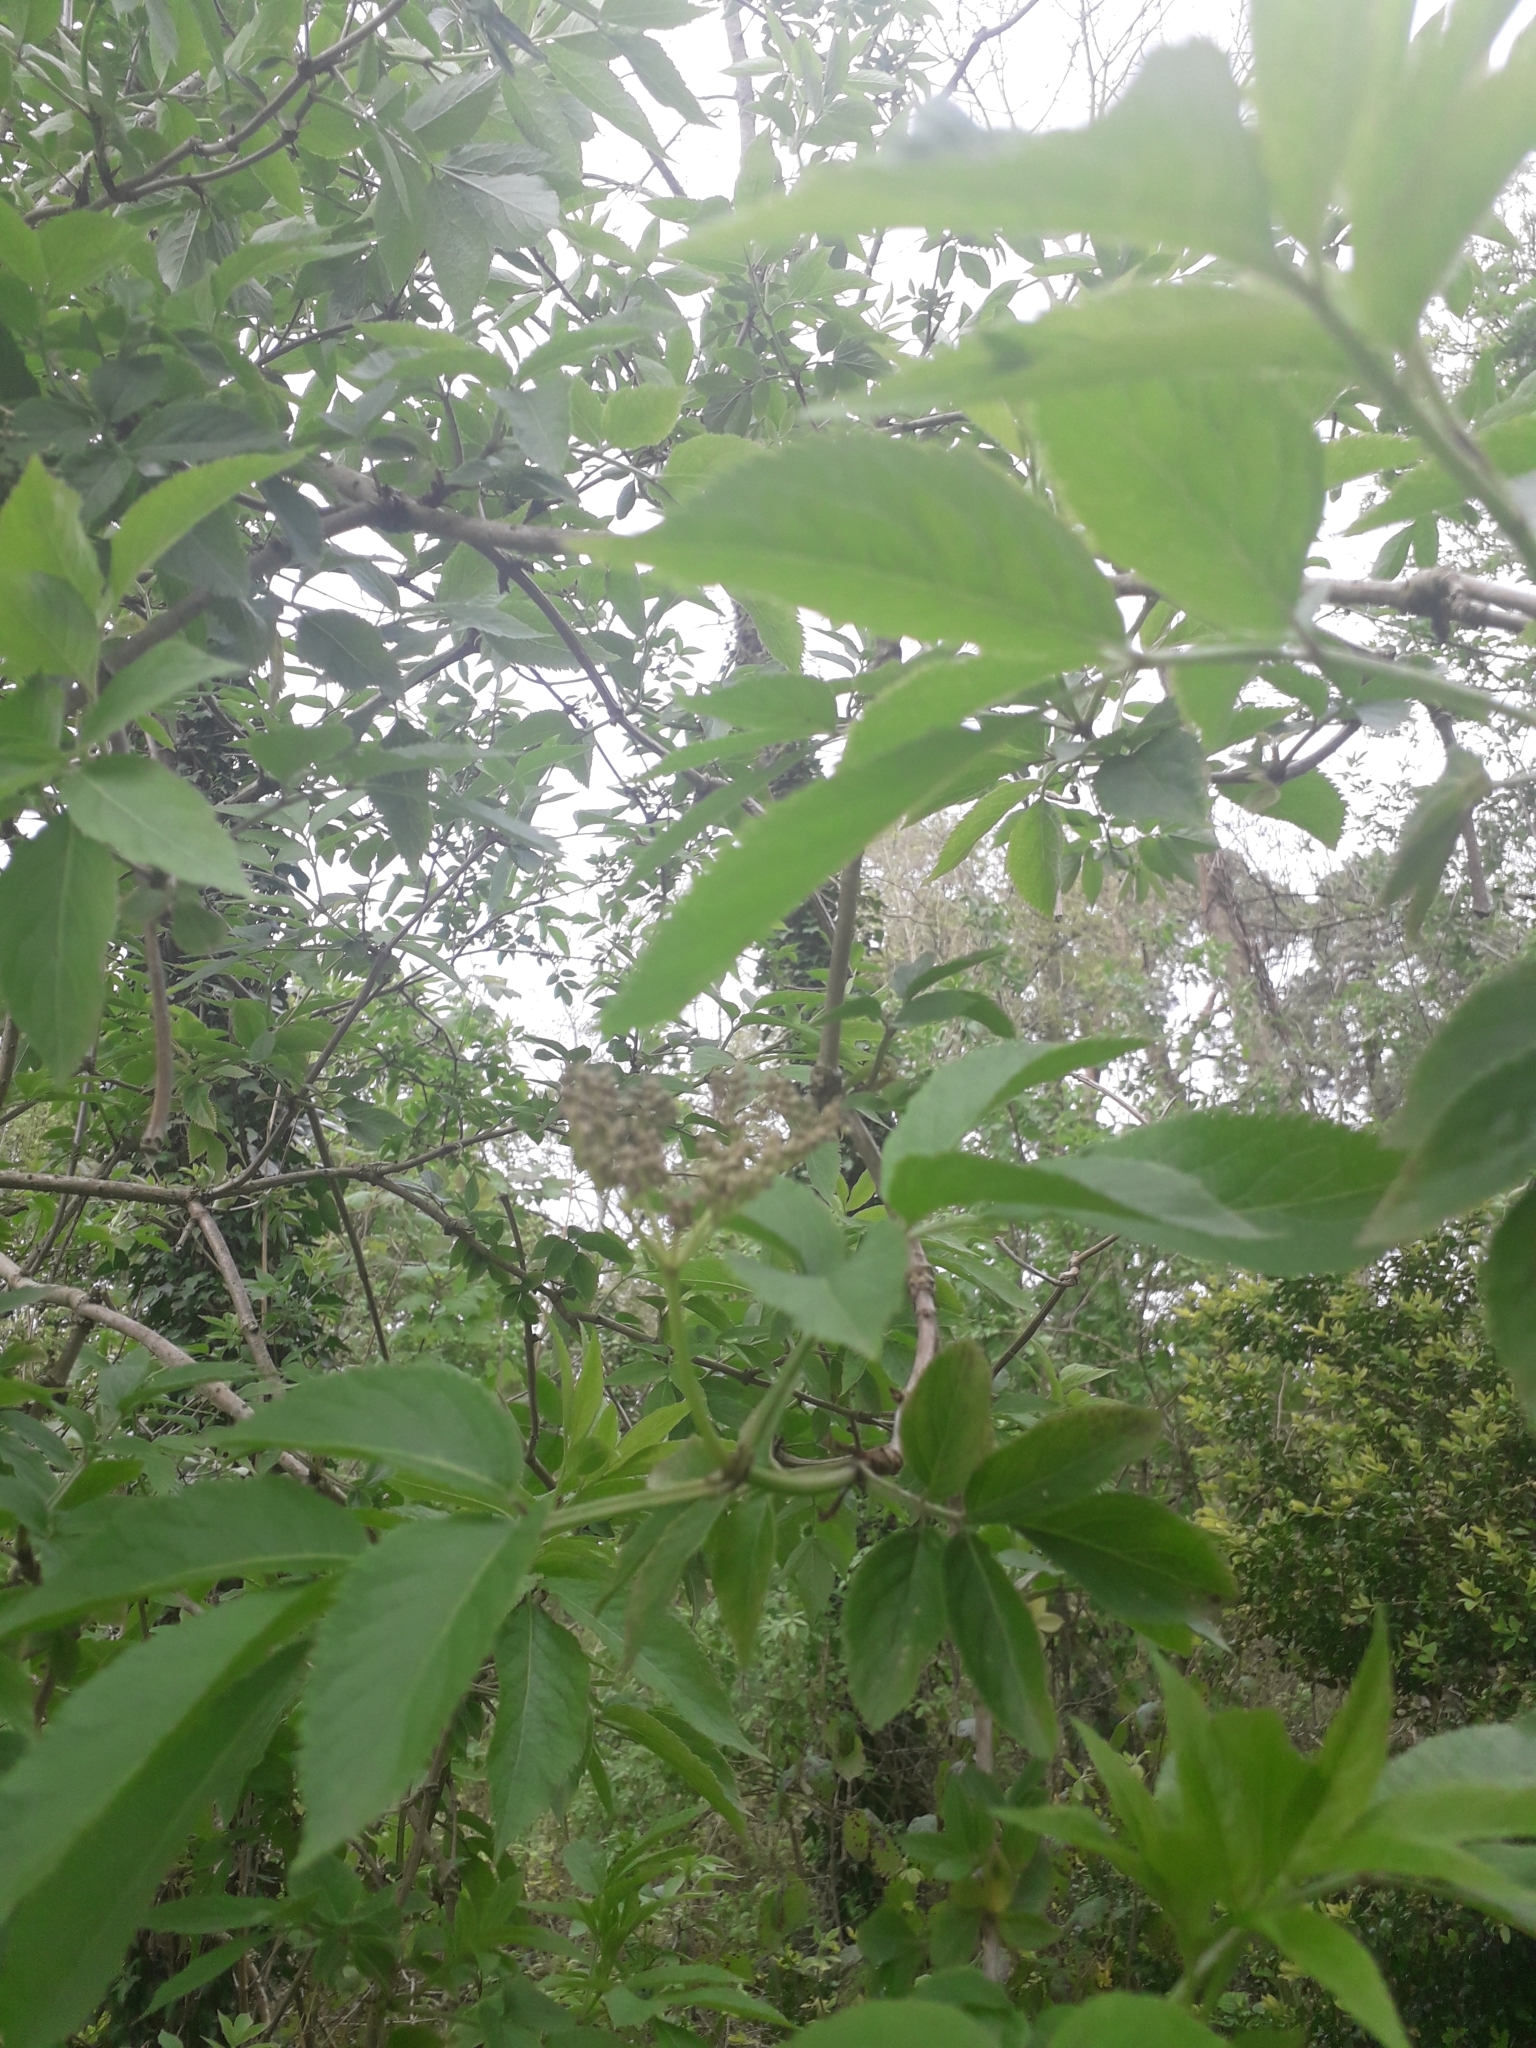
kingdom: Plantae
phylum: Tracheophyta
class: Magnoliopsida
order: Dipsacales
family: Viburnaceae
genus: Sambucus
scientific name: Sambucus nigra
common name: Elder
